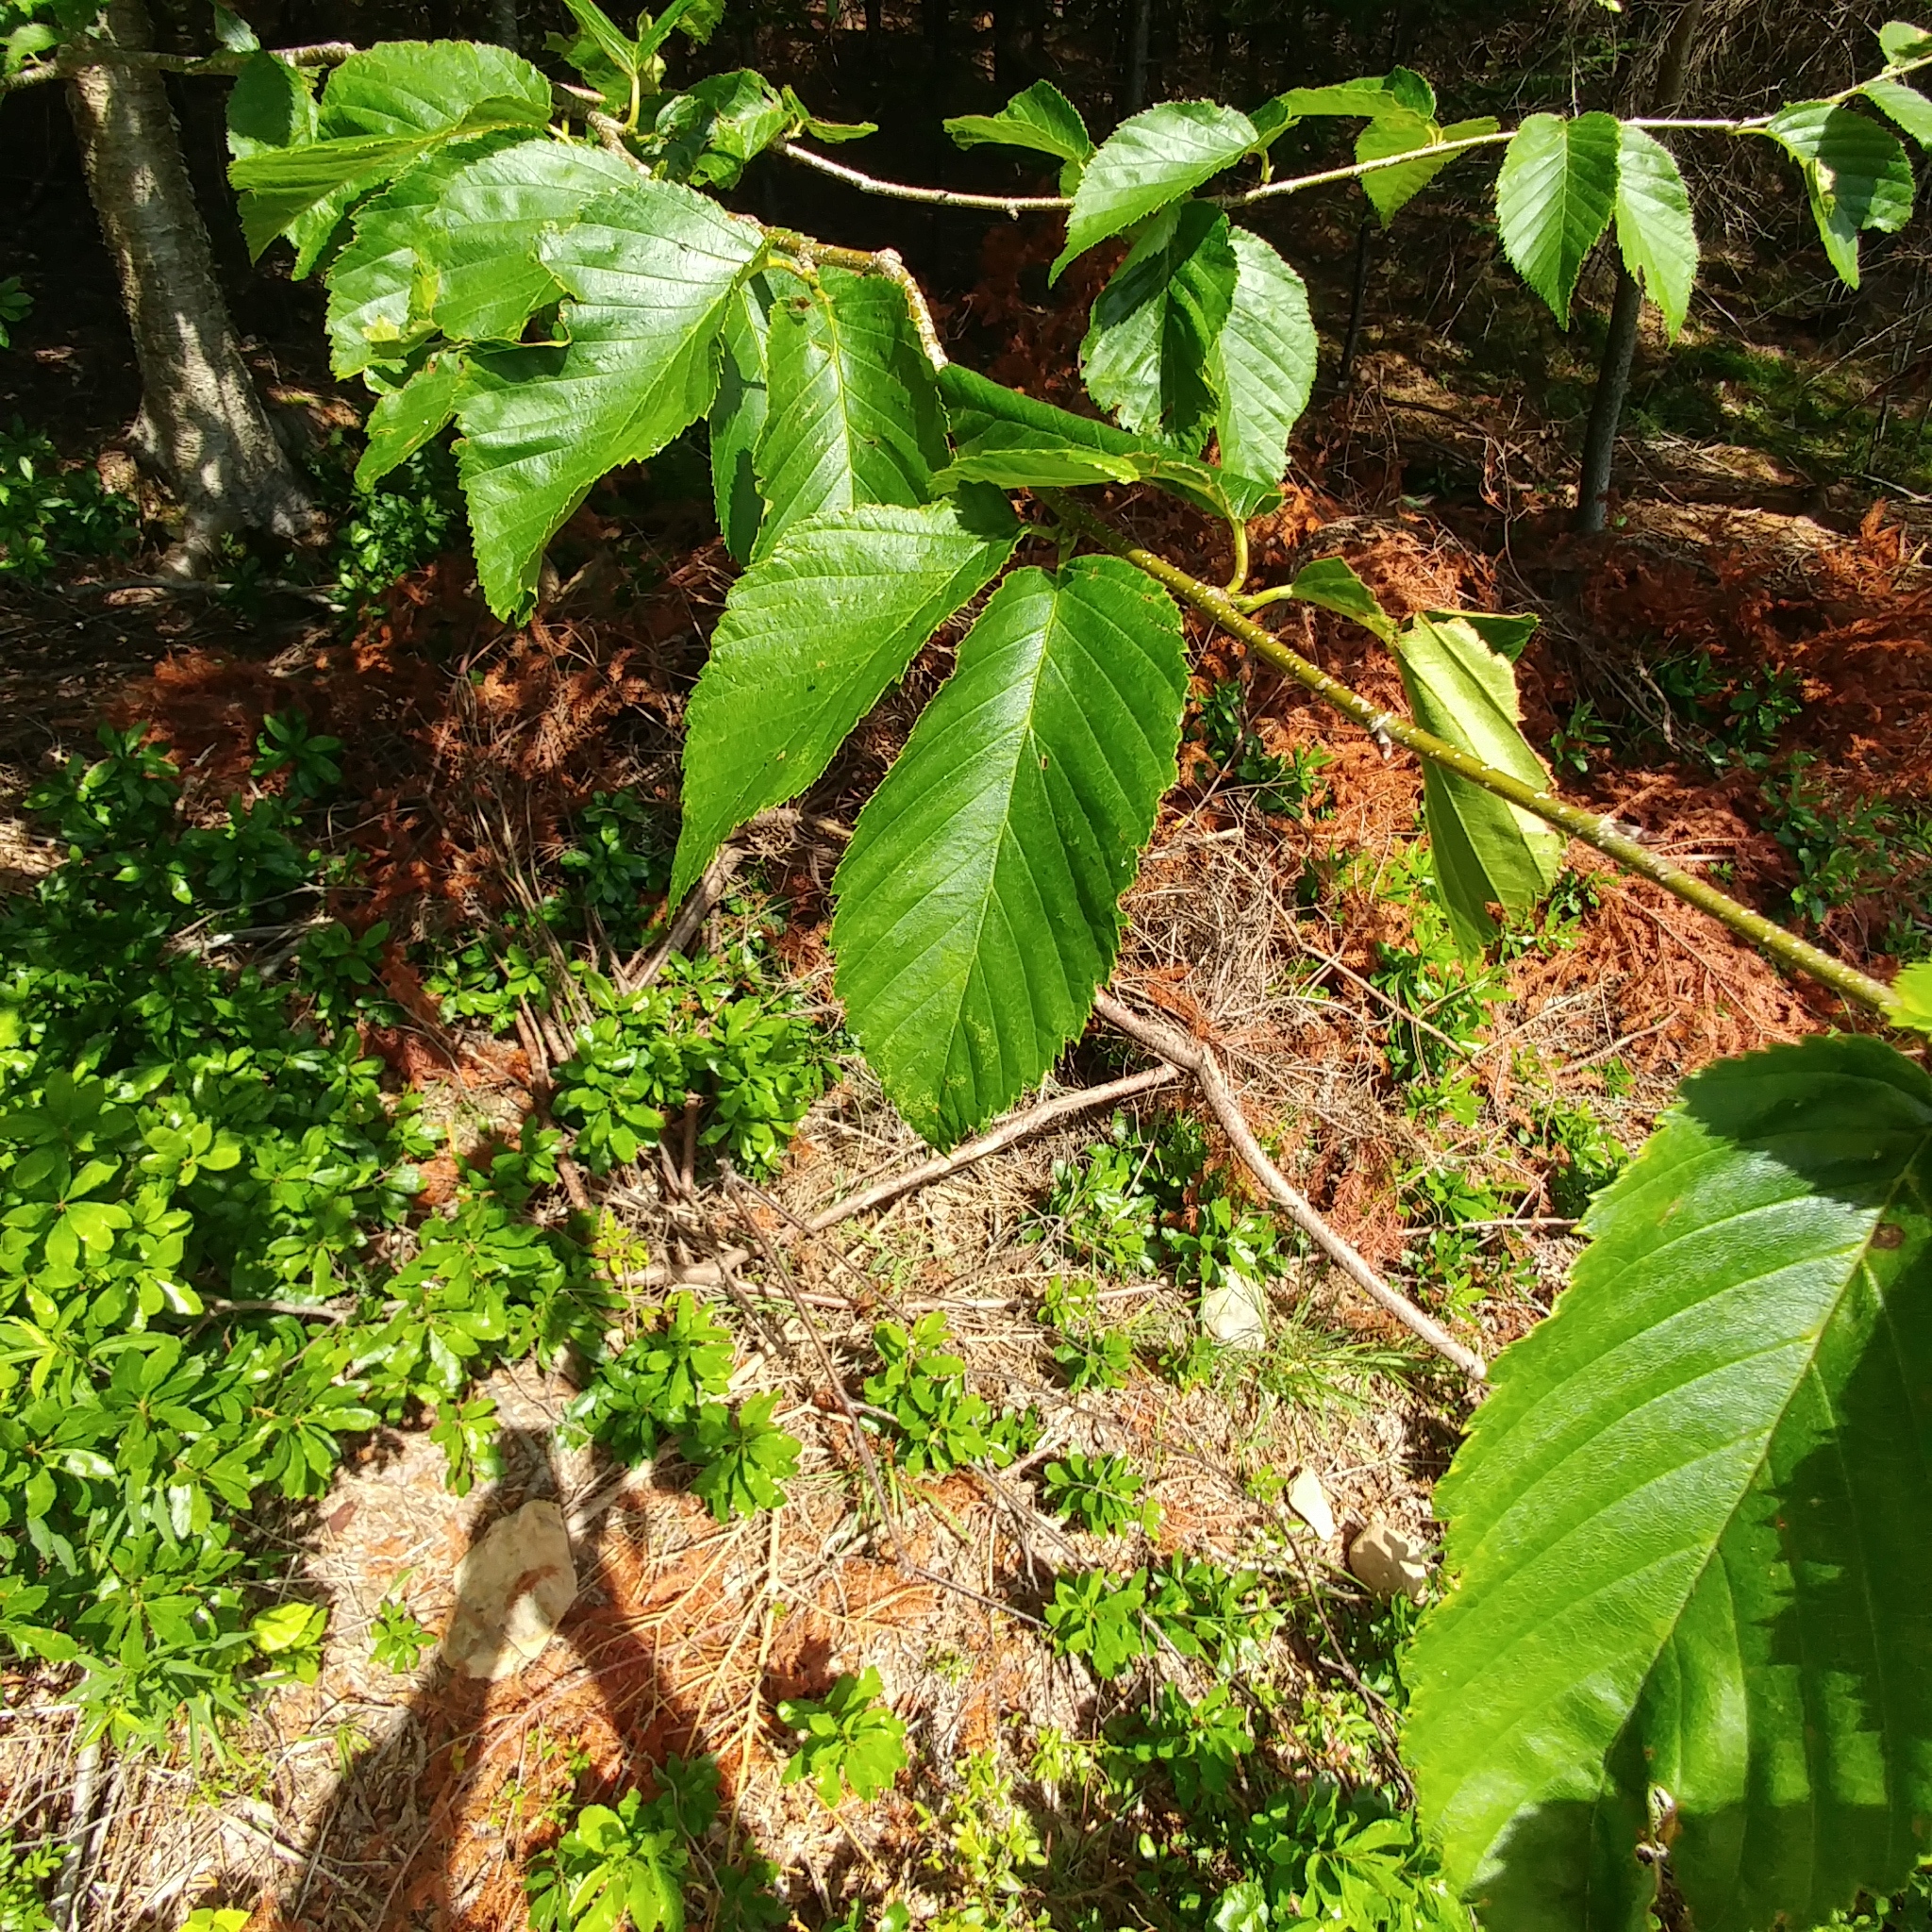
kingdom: Plantae
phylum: Tracheophyta
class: Magnoliopsida
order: Fagales
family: Betulaceae
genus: Betula
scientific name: Betula alleghaniensis
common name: Yellow birch
